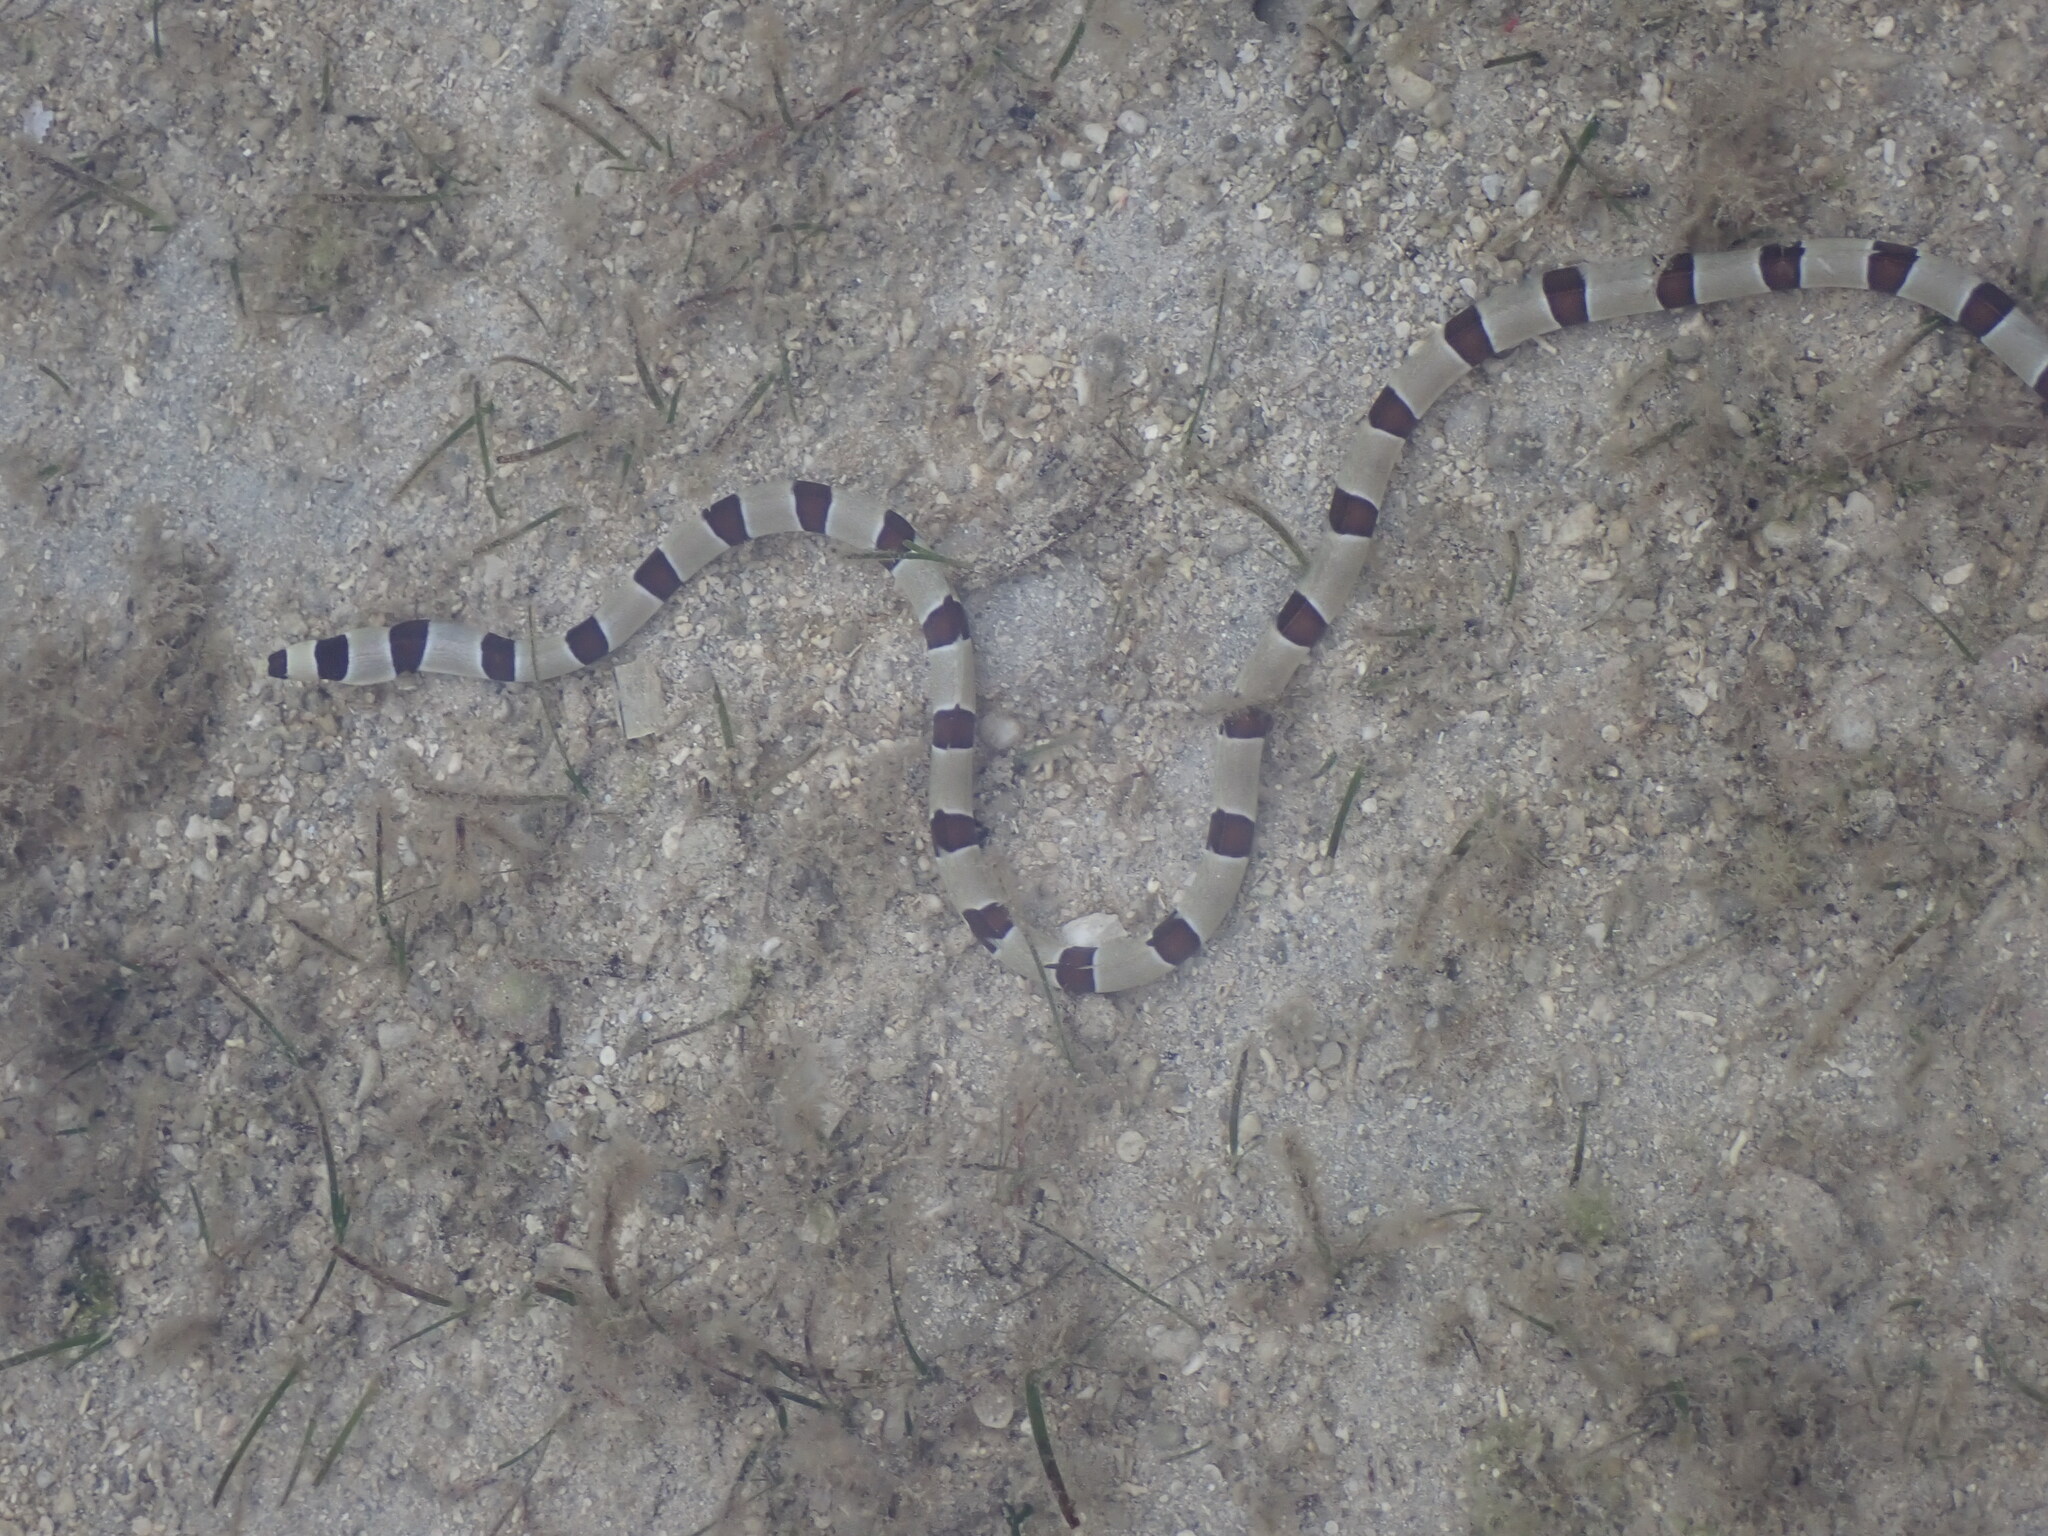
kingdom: Animalia
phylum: Chordata
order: Anguilliformes
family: Ophichthidae
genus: Myrichthys
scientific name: Myrichthys colubrinus
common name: Harlequin snake eel
